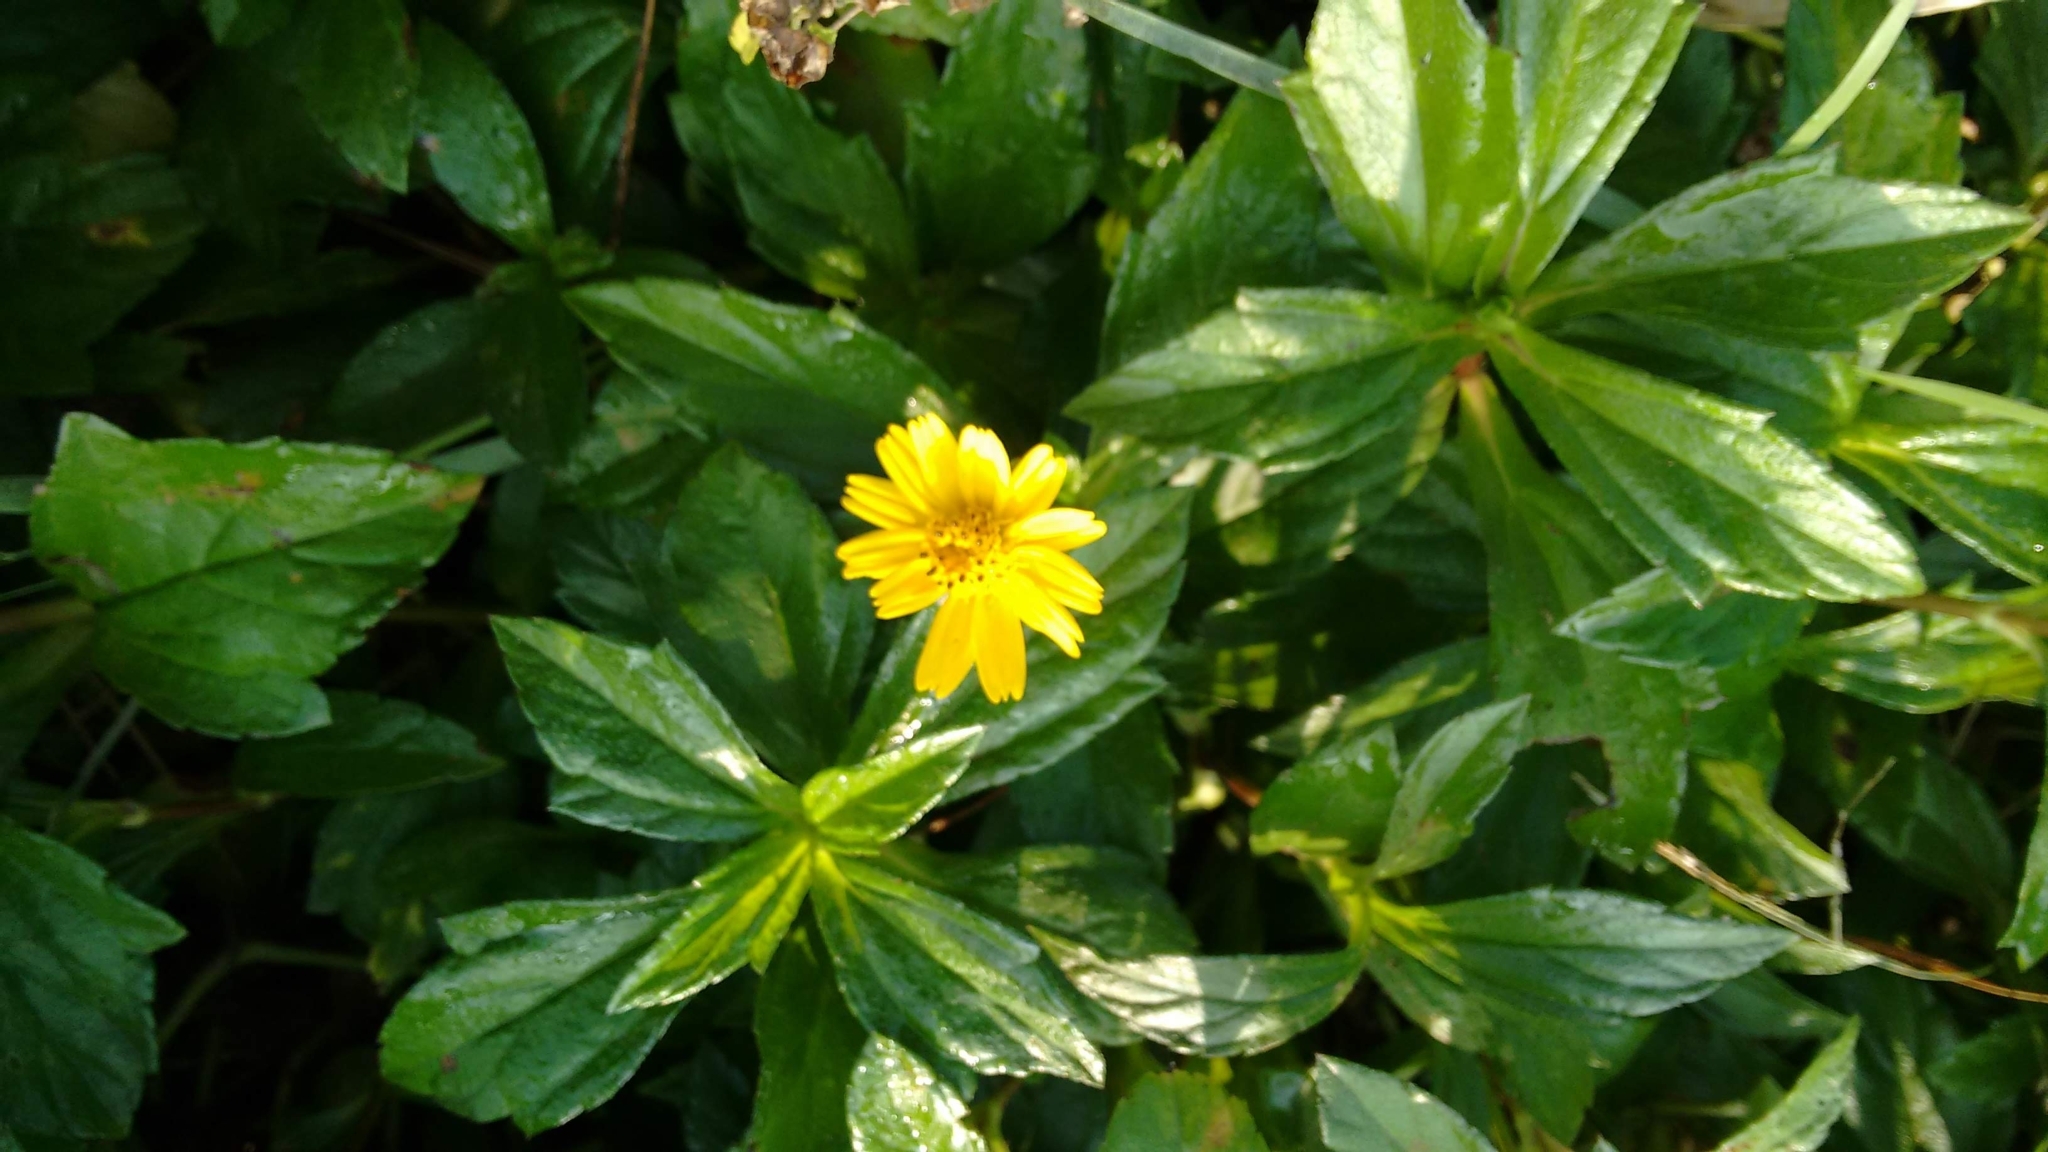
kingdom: Plantae
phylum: Tracheophyta
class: Magnoliopsida
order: Asterales
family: Asteraceae
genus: Sphagneticola
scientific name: Sphagneticola trilobata
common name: Bay biscayne creeping-oxeye
